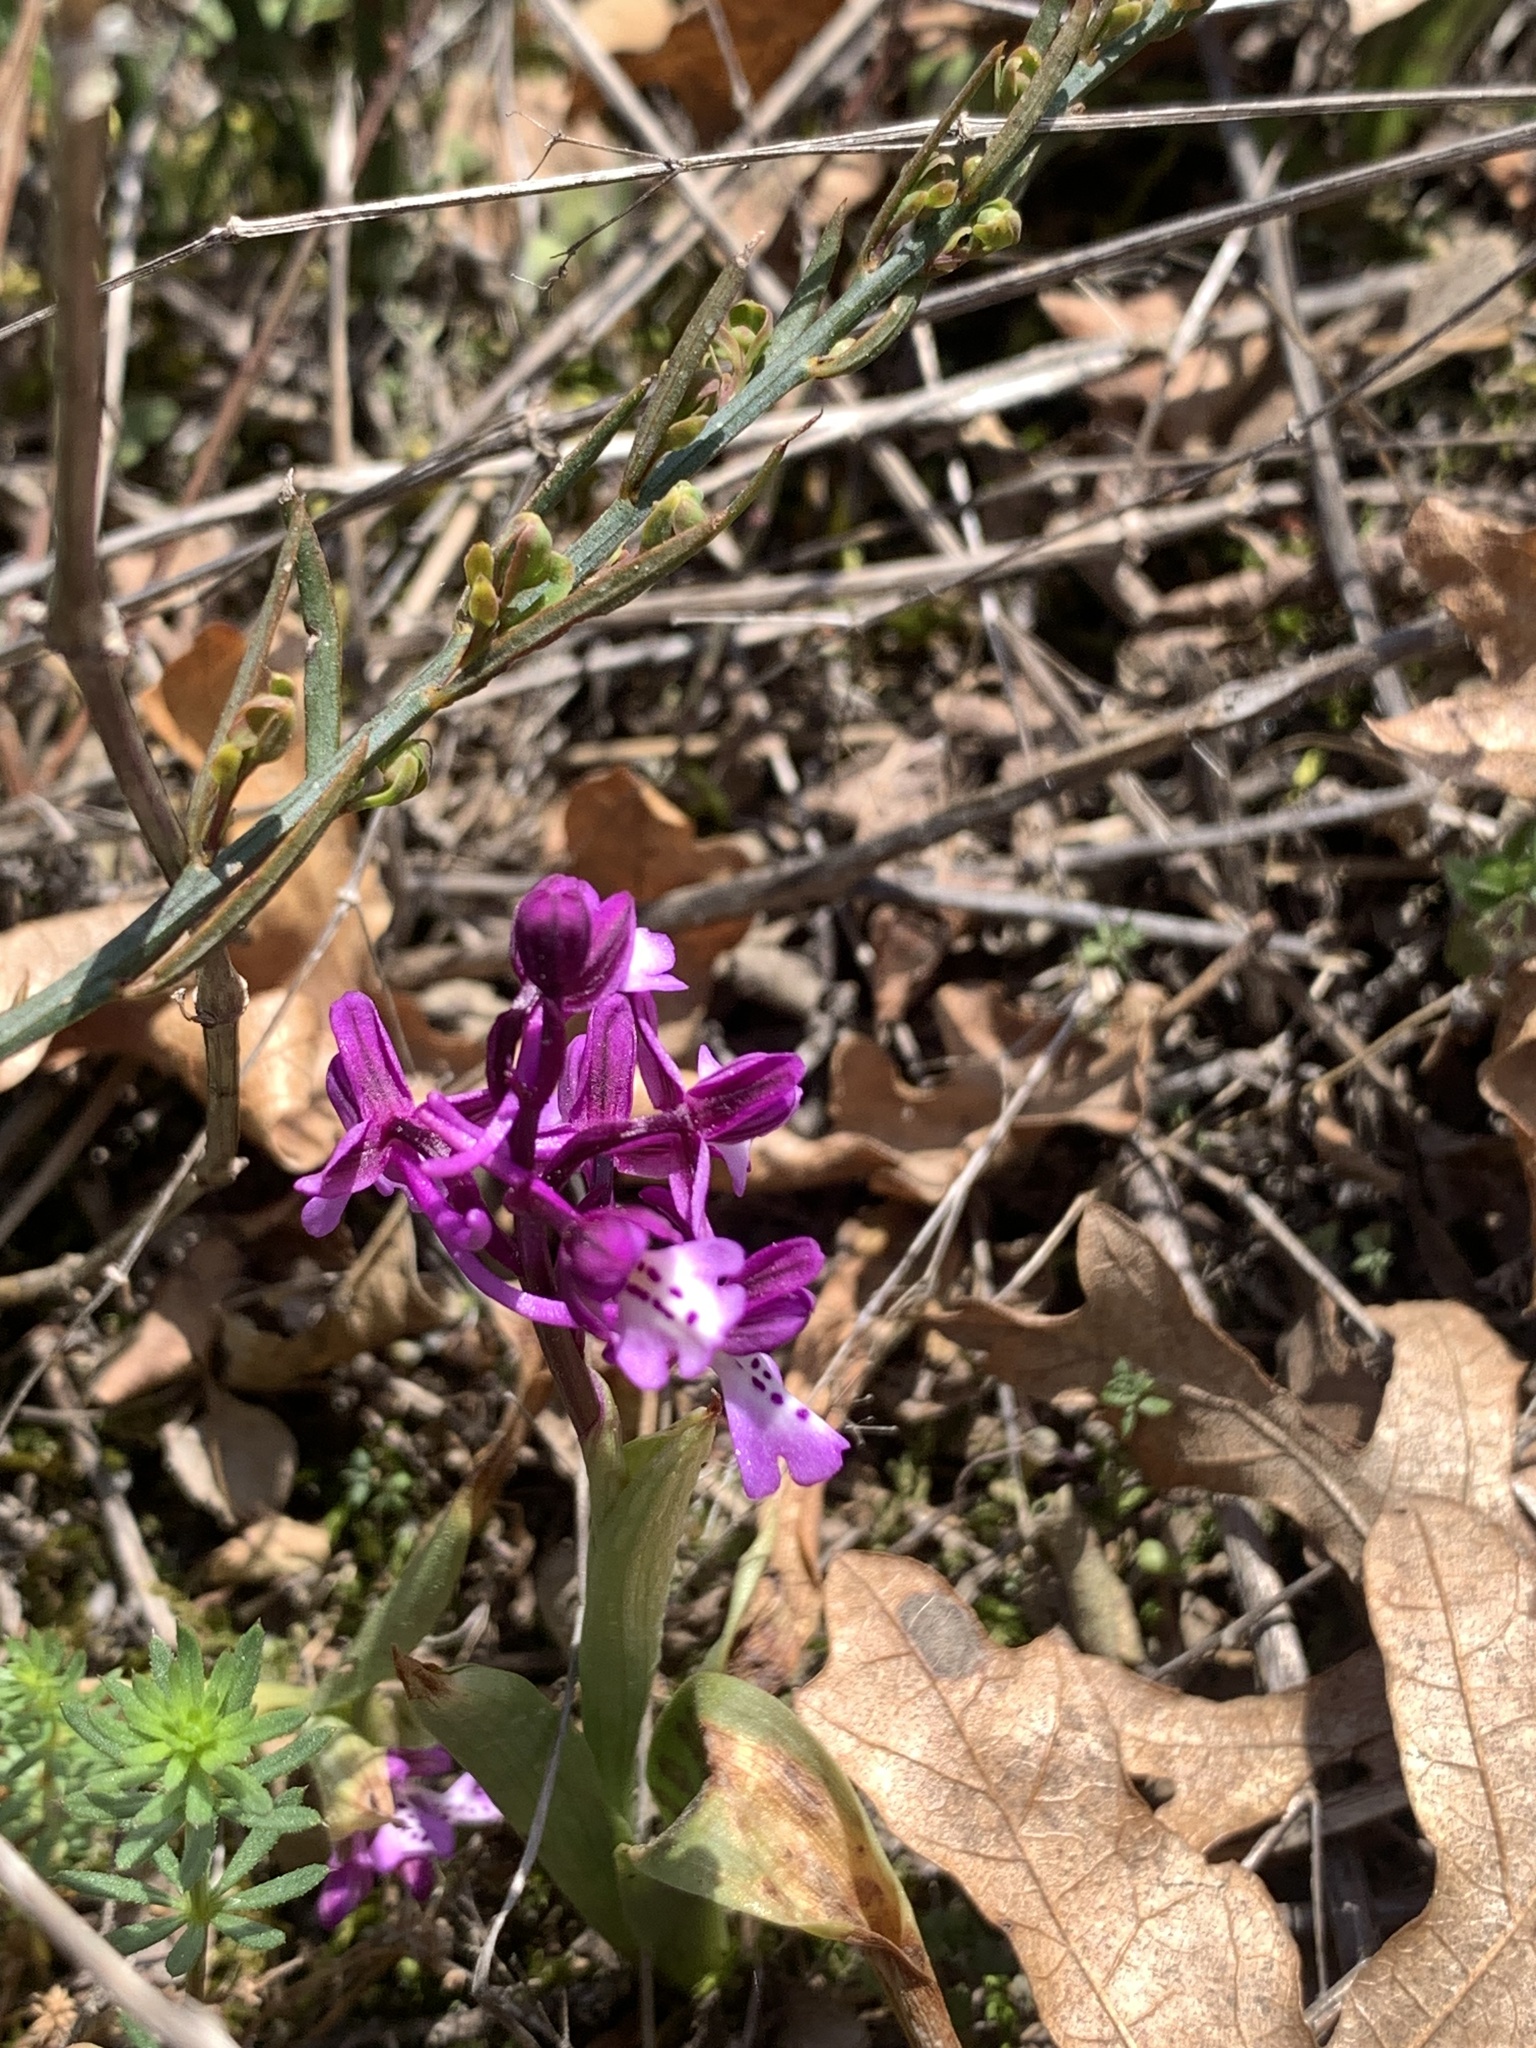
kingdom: Plantae
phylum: Tracheophyta
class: Liliopsida
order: Asparagales
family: Orchidaceae
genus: Orchis
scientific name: Orchis anatolica
